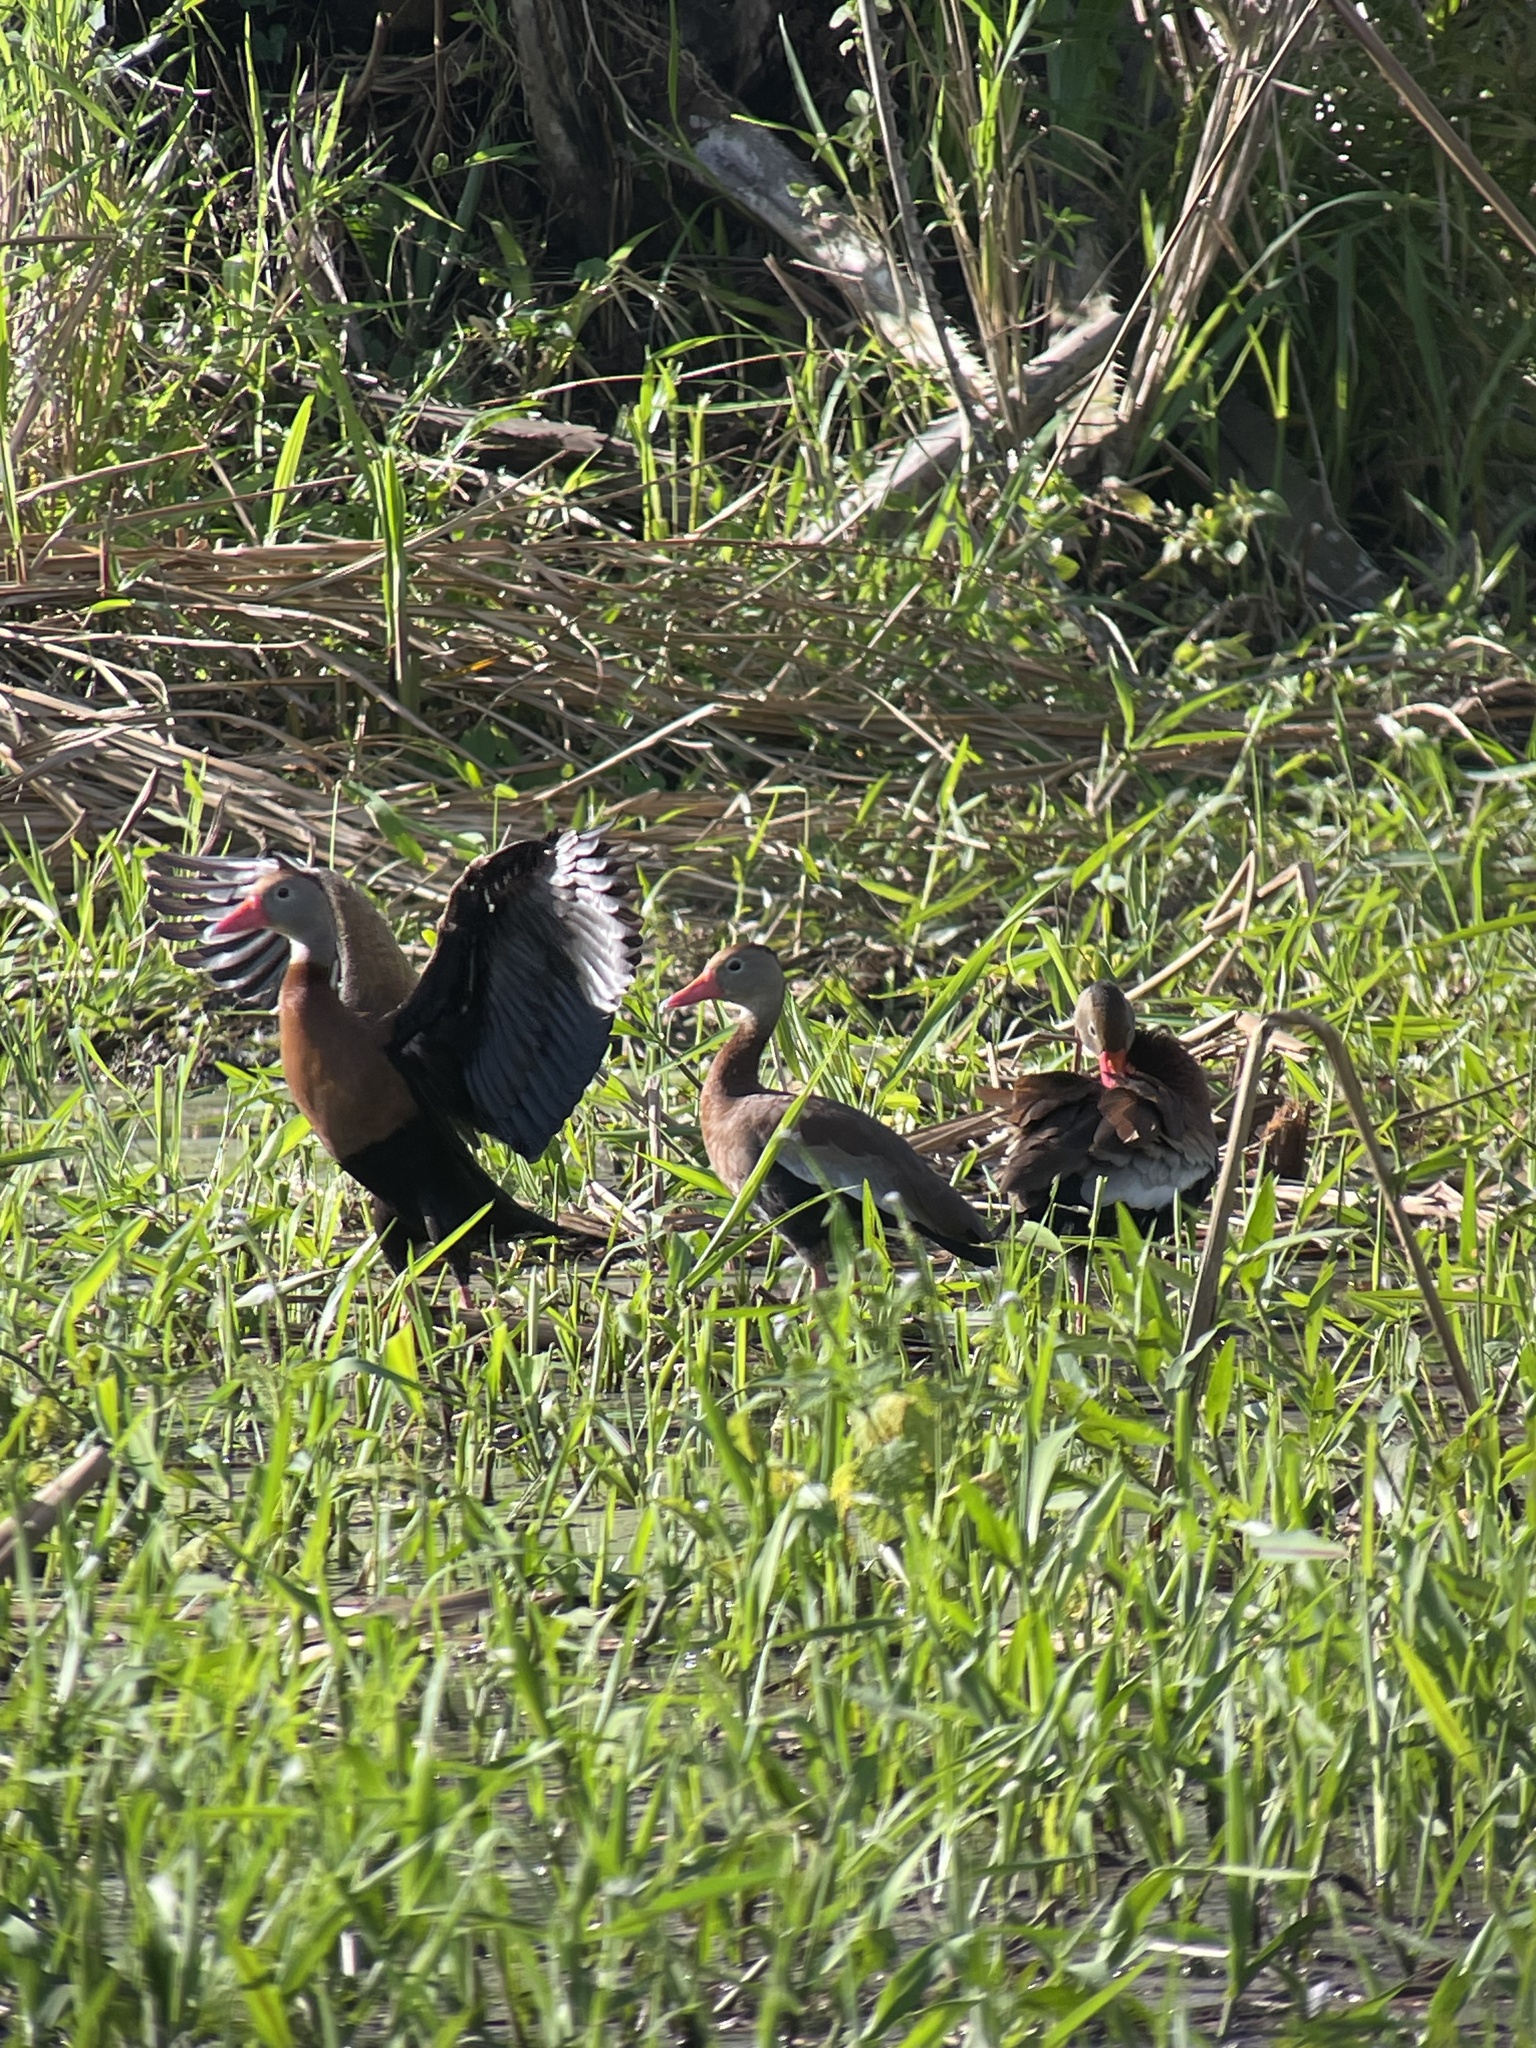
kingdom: Animalia
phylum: Chordata
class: Aves
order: Anseriformes
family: Anatidae
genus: Dendrocygna
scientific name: Dendrocygna autumnalis
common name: Black-bellied whistling duck
